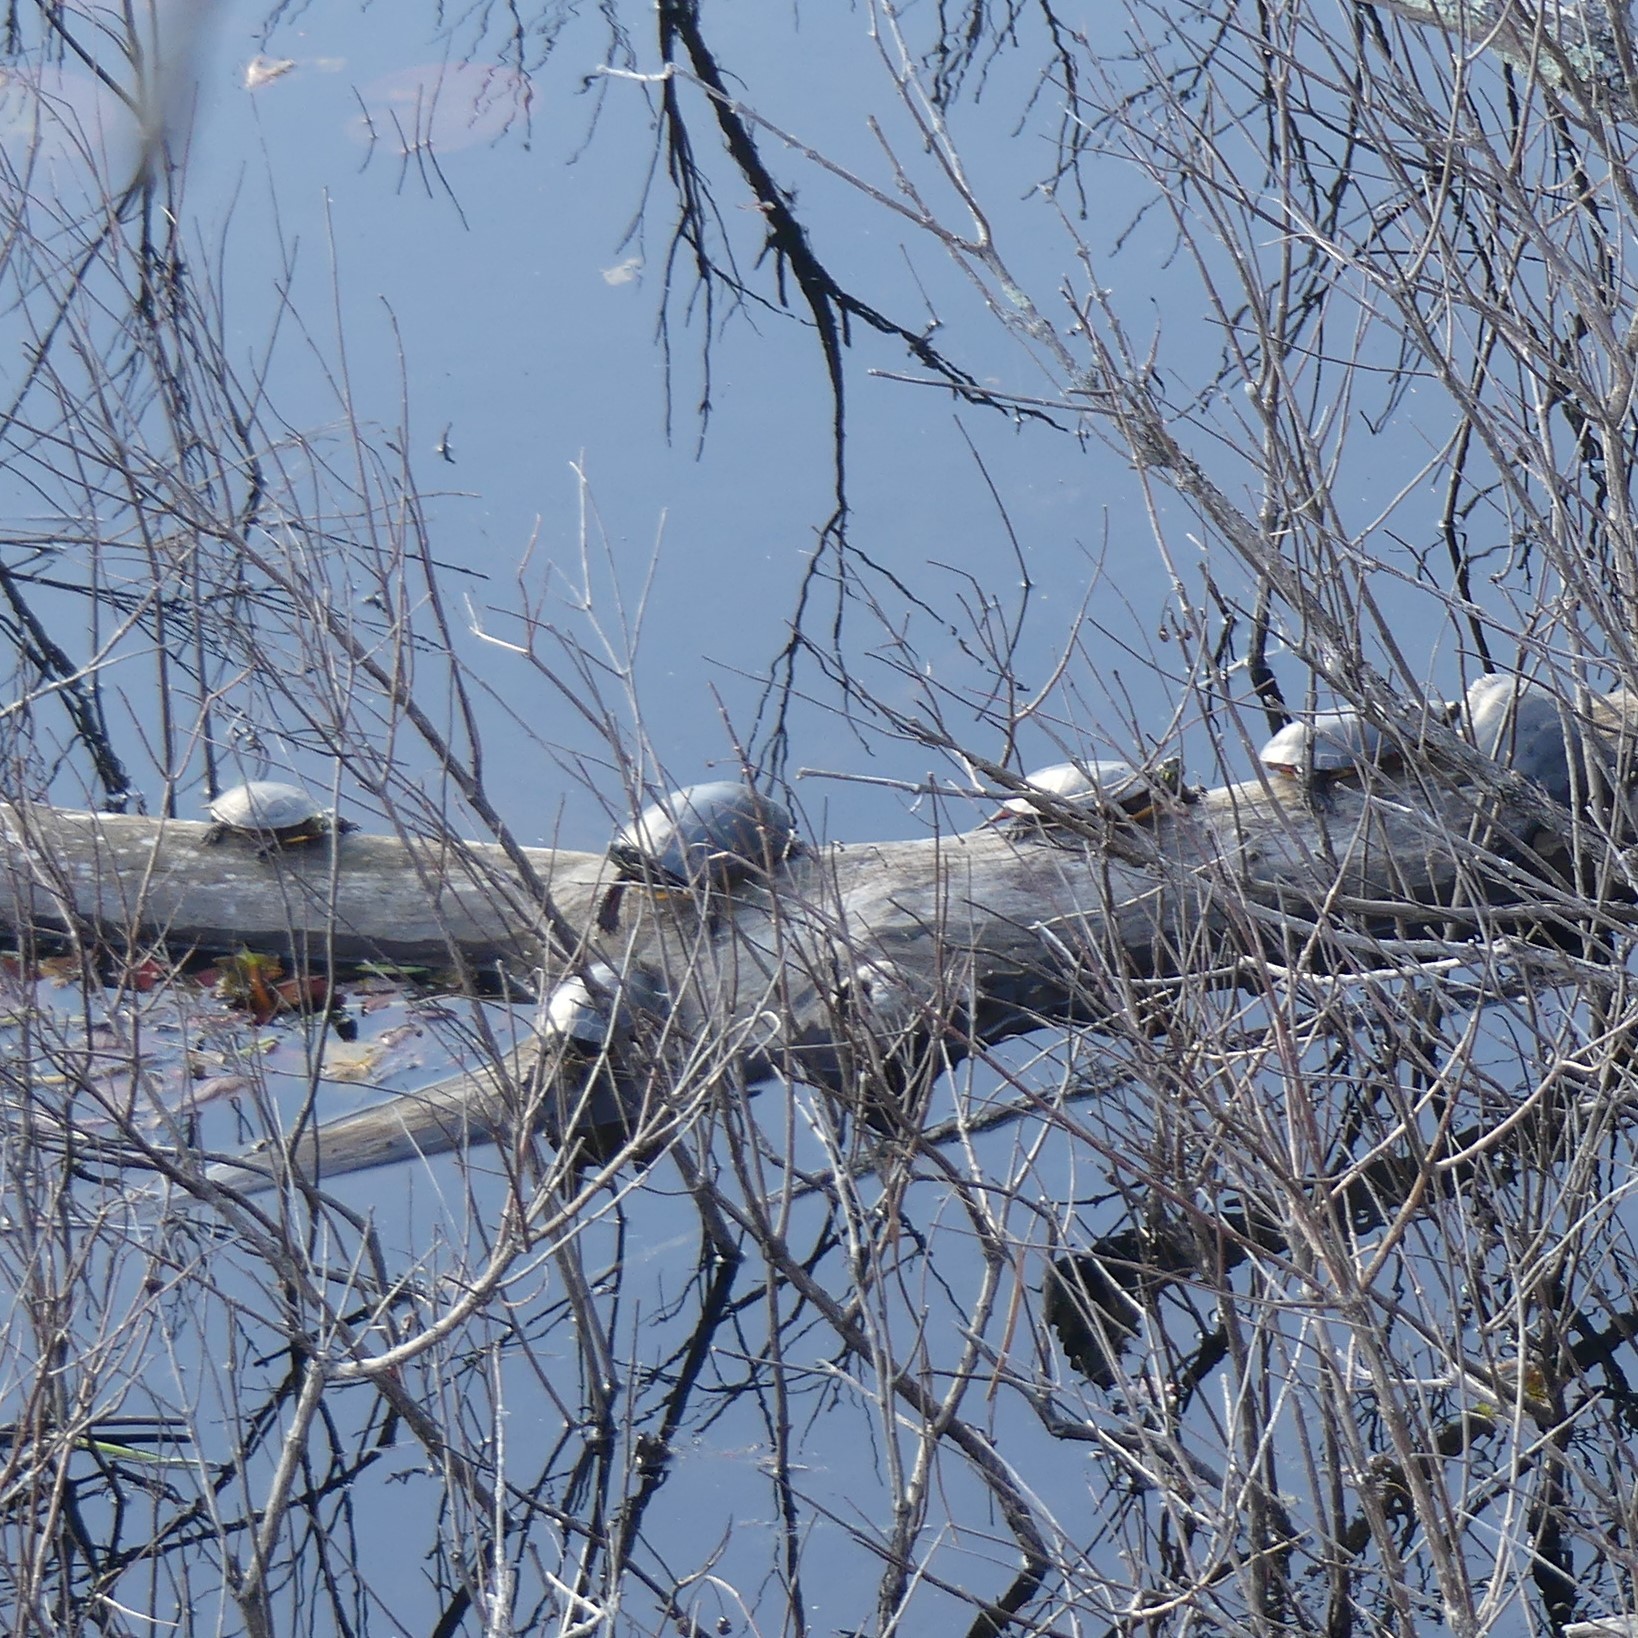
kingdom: Animalia
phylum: Chordata
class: Testudines
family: Emydidae
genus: Chrysemys
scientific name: Chrysemys picta
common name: Painted turtle
